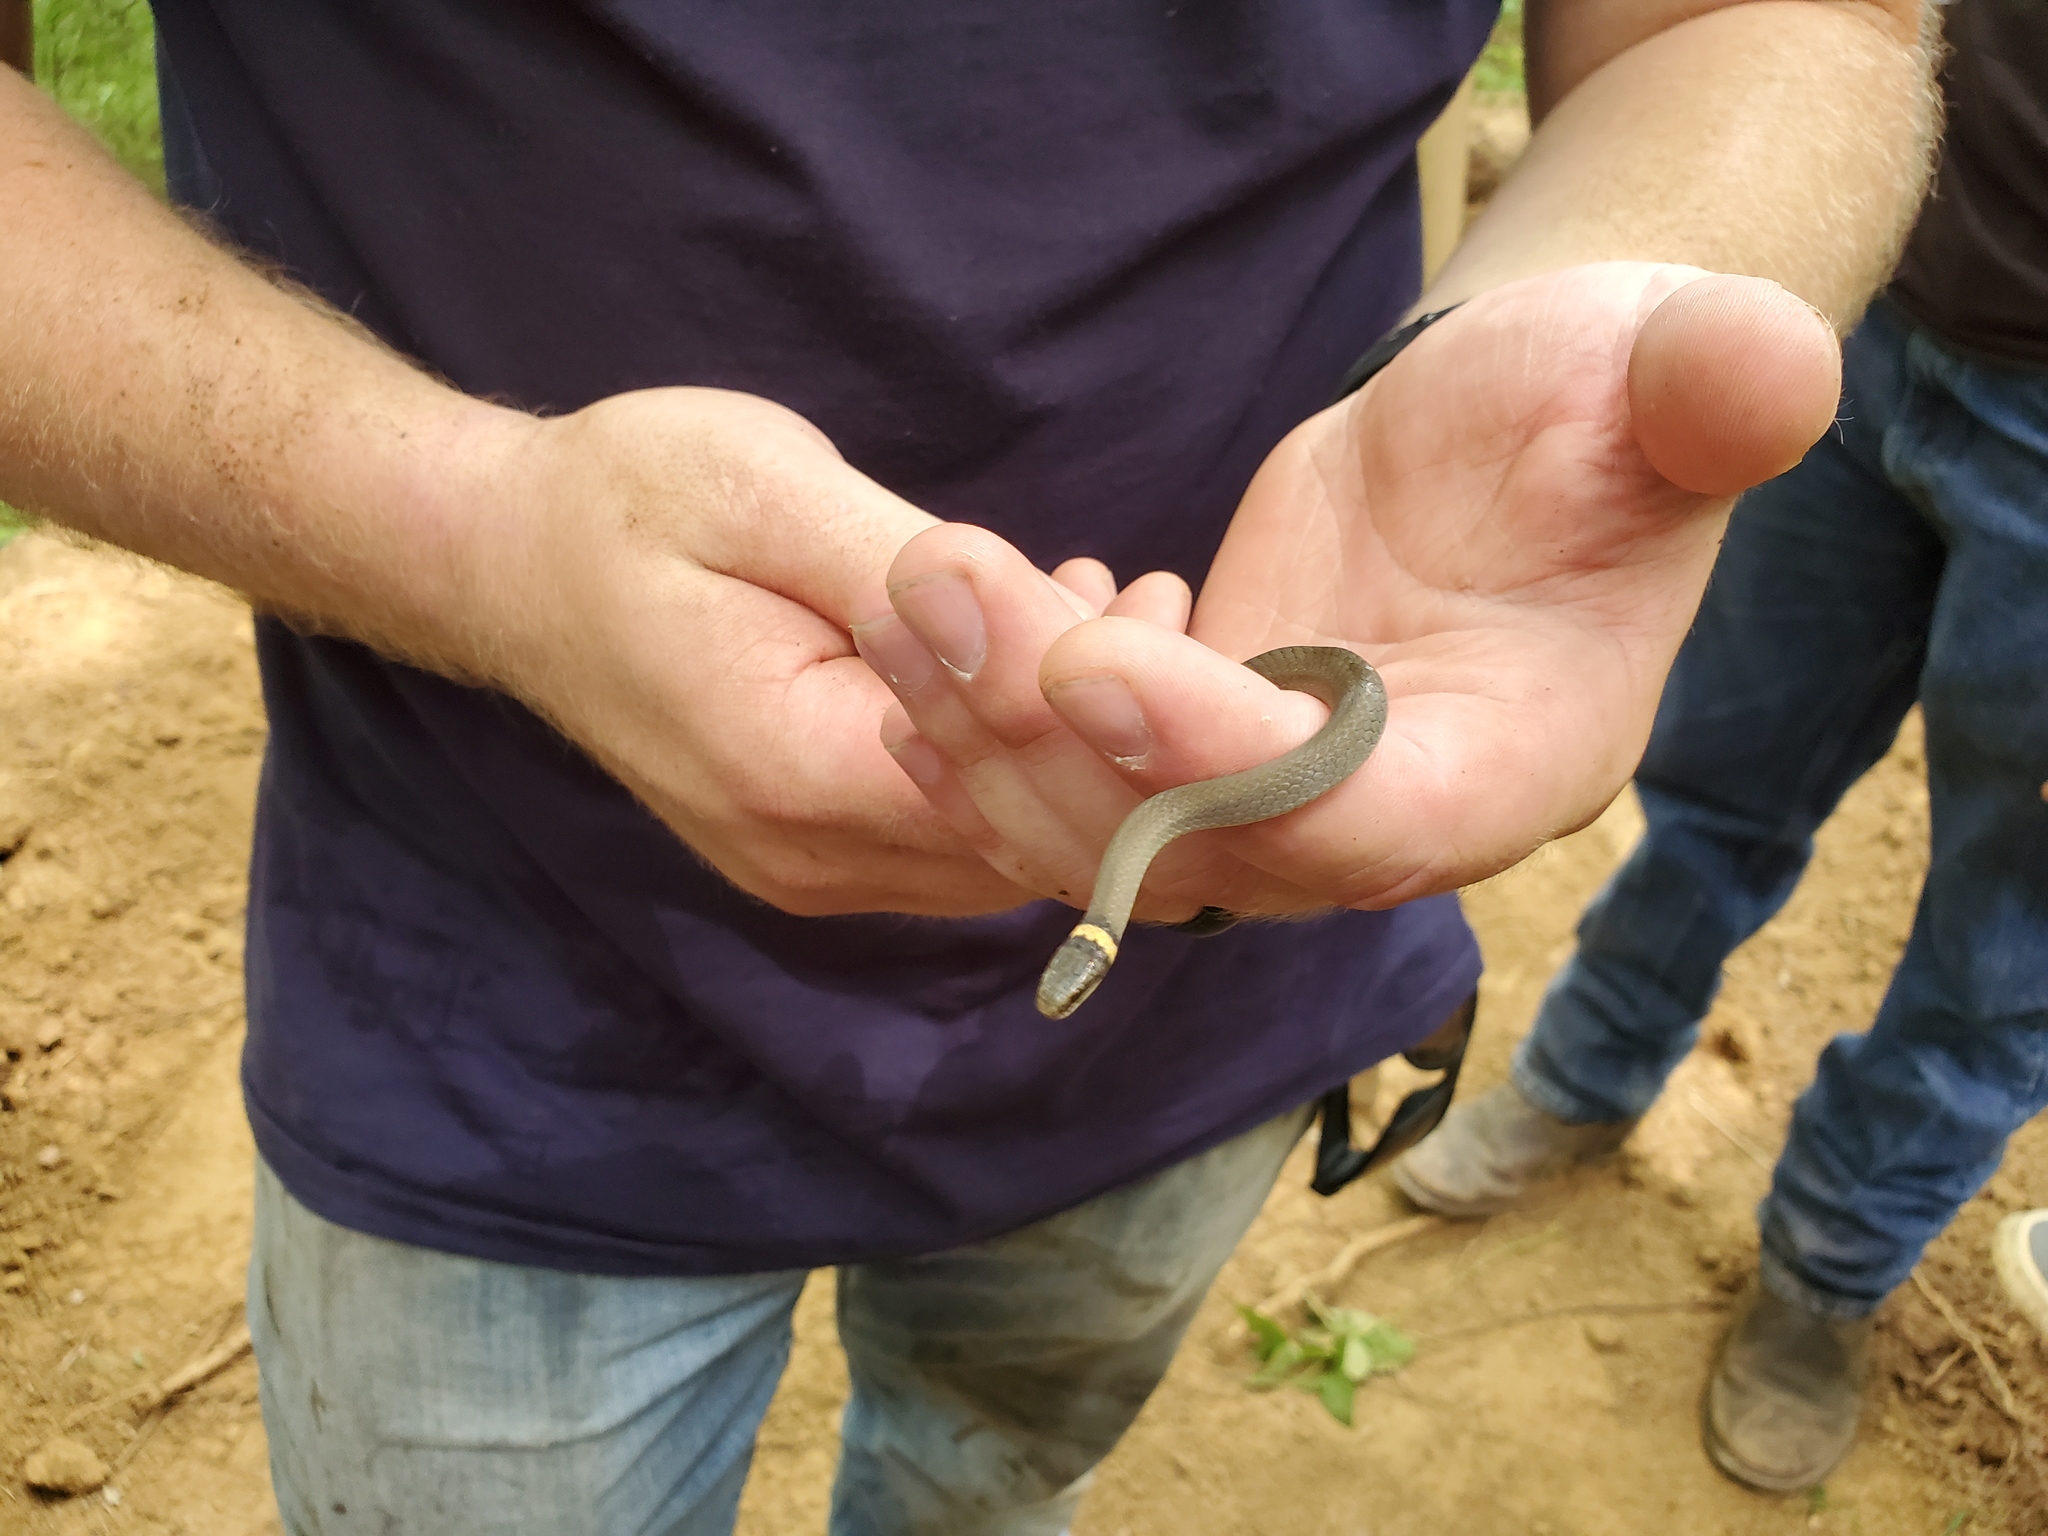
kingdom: Animalia
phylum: Chordata
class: Squamata
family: Colubridae
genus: Diadophis
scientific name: Diadophis punctatus
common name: Ringneck snake
